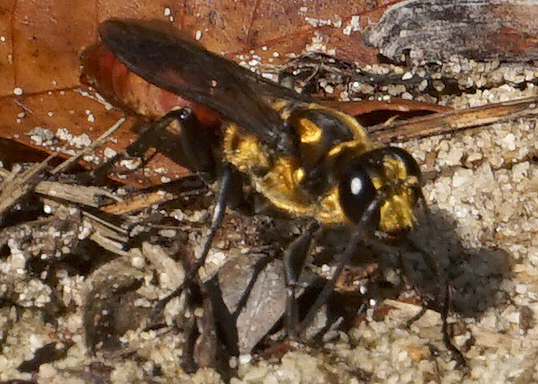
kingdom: Animalia
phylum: Arthropoda
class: Insecta
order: Hymenoptera
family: Sphecidae
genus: Sphex
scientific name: Sphex habenus
